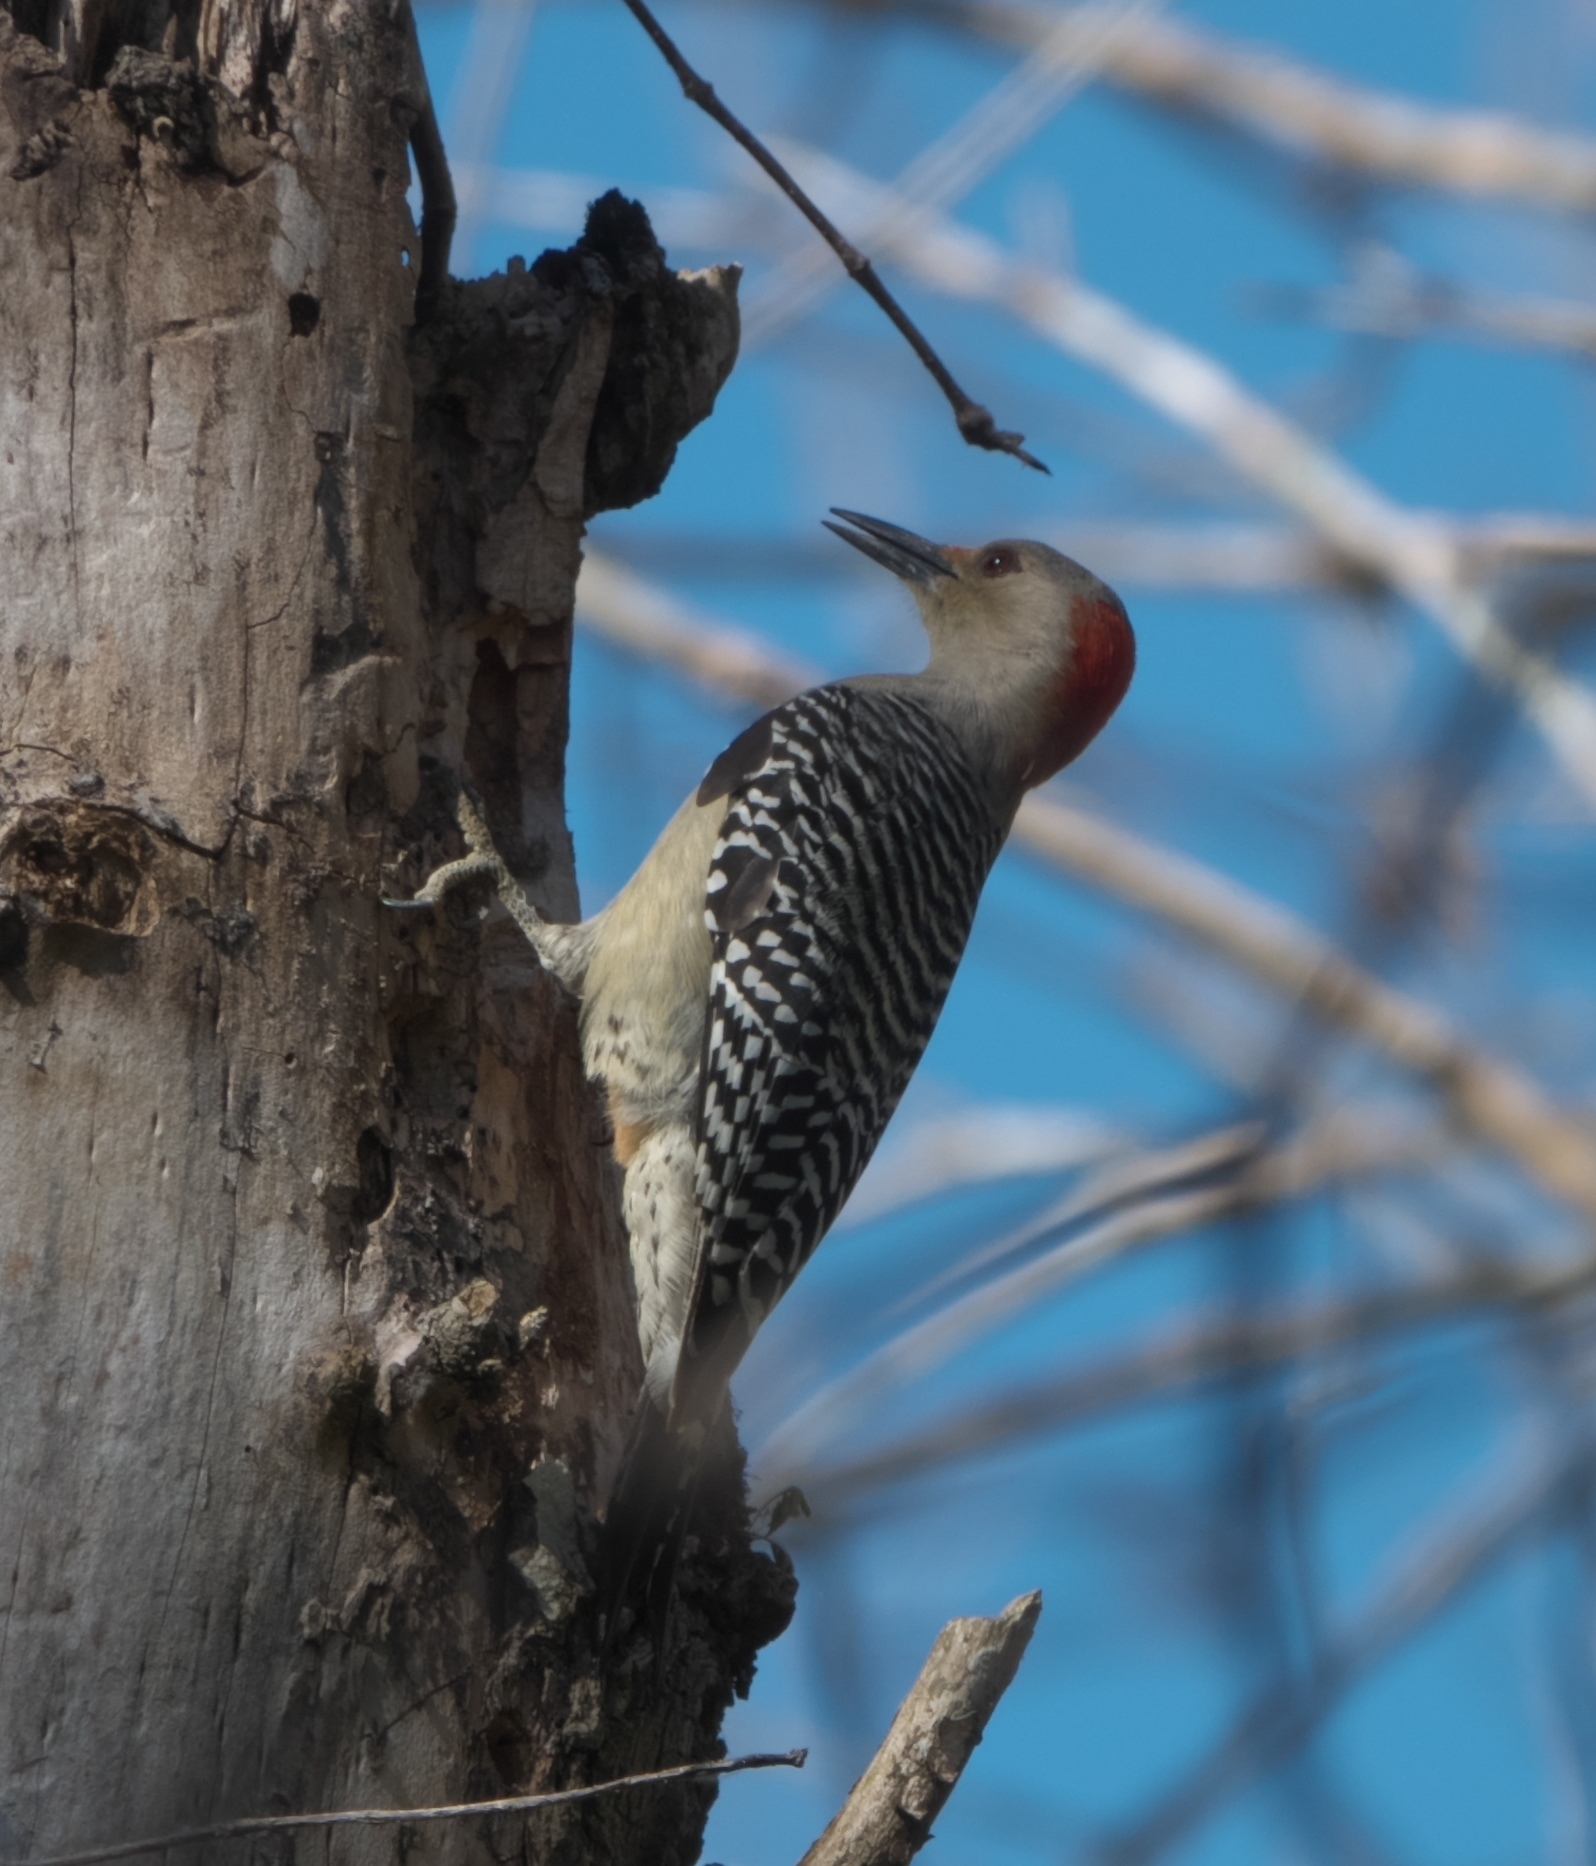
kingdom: Animalia
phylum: Chordata
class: Aves
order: Piciformes
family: Picidae
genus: Melanerpes
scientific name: Melanerpes carolinus
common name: Red-bellied woodpecker
